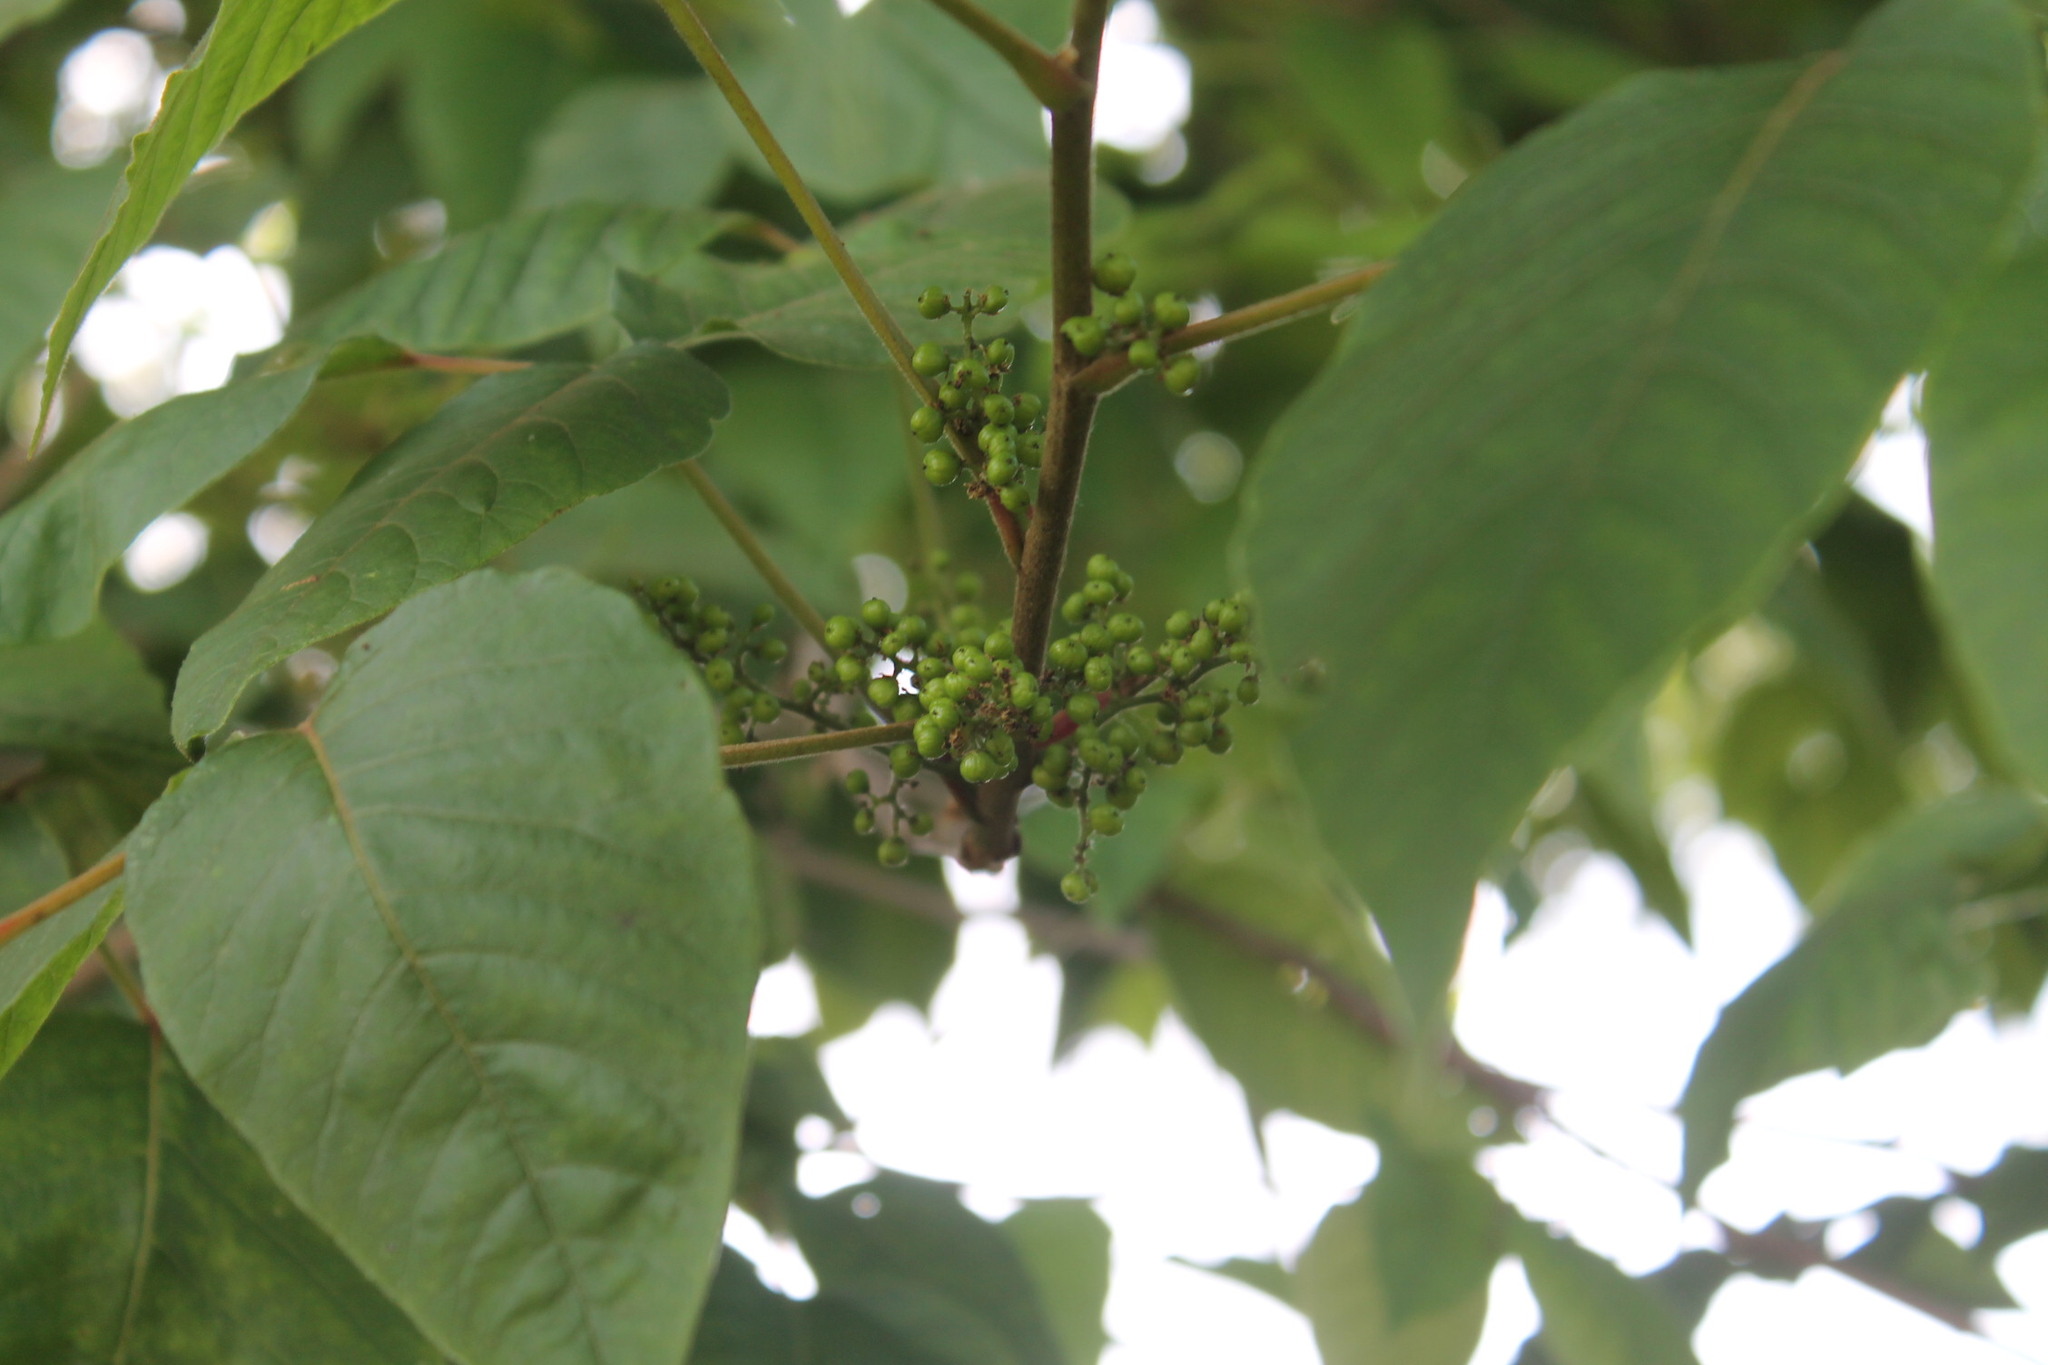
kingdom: Plantae
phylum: Tracheophyta
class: Magnoliopsida
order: Sapindales
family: Anacardiaceae
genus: Toxicodendron
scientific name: Toxicodendron radicans
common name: Poison ivy
